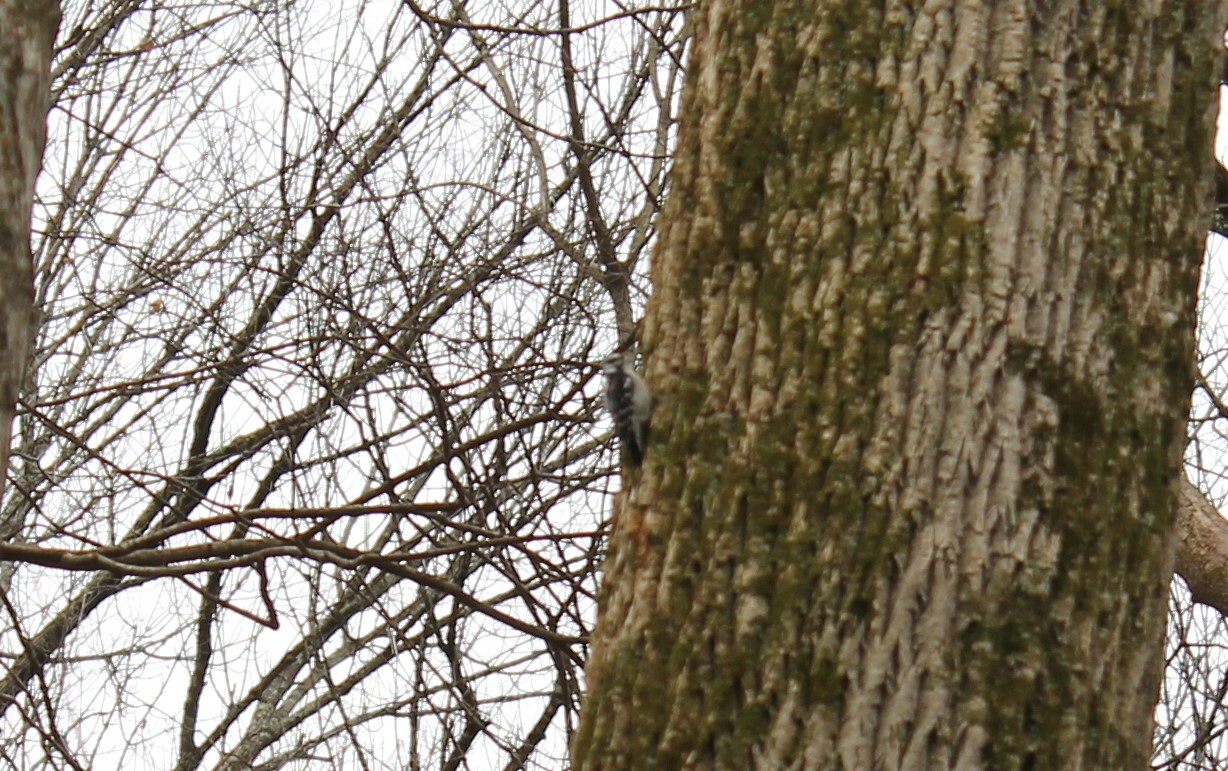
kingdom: Animalia
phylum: Chordata
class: Aves
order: Piciformes
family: Picidae
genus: Dryobates
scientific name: Dryobates pubescens
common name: Downy woodpecker
